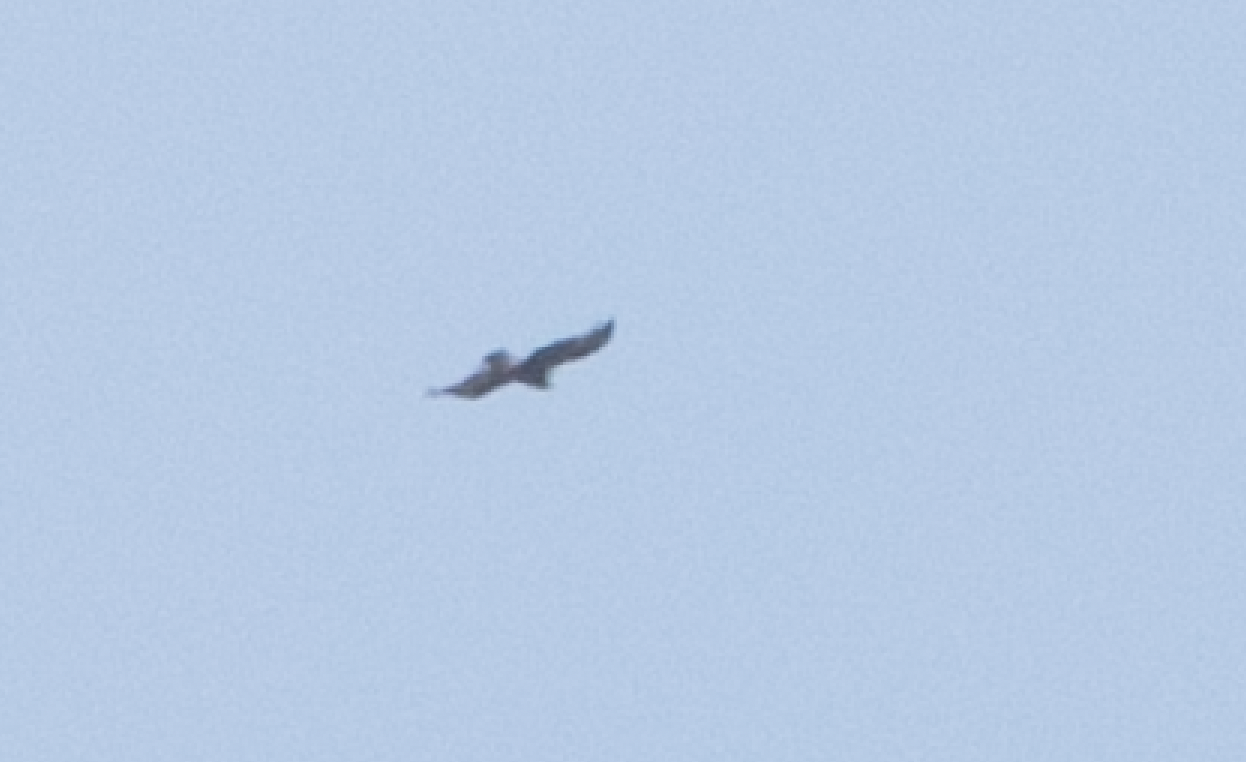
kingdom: Animalia
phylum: Chordata
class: Aves
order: Accipitriformes
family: Accipitridae
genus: Aquila
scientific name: Aquila chrysaetos
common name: Golden eagle
